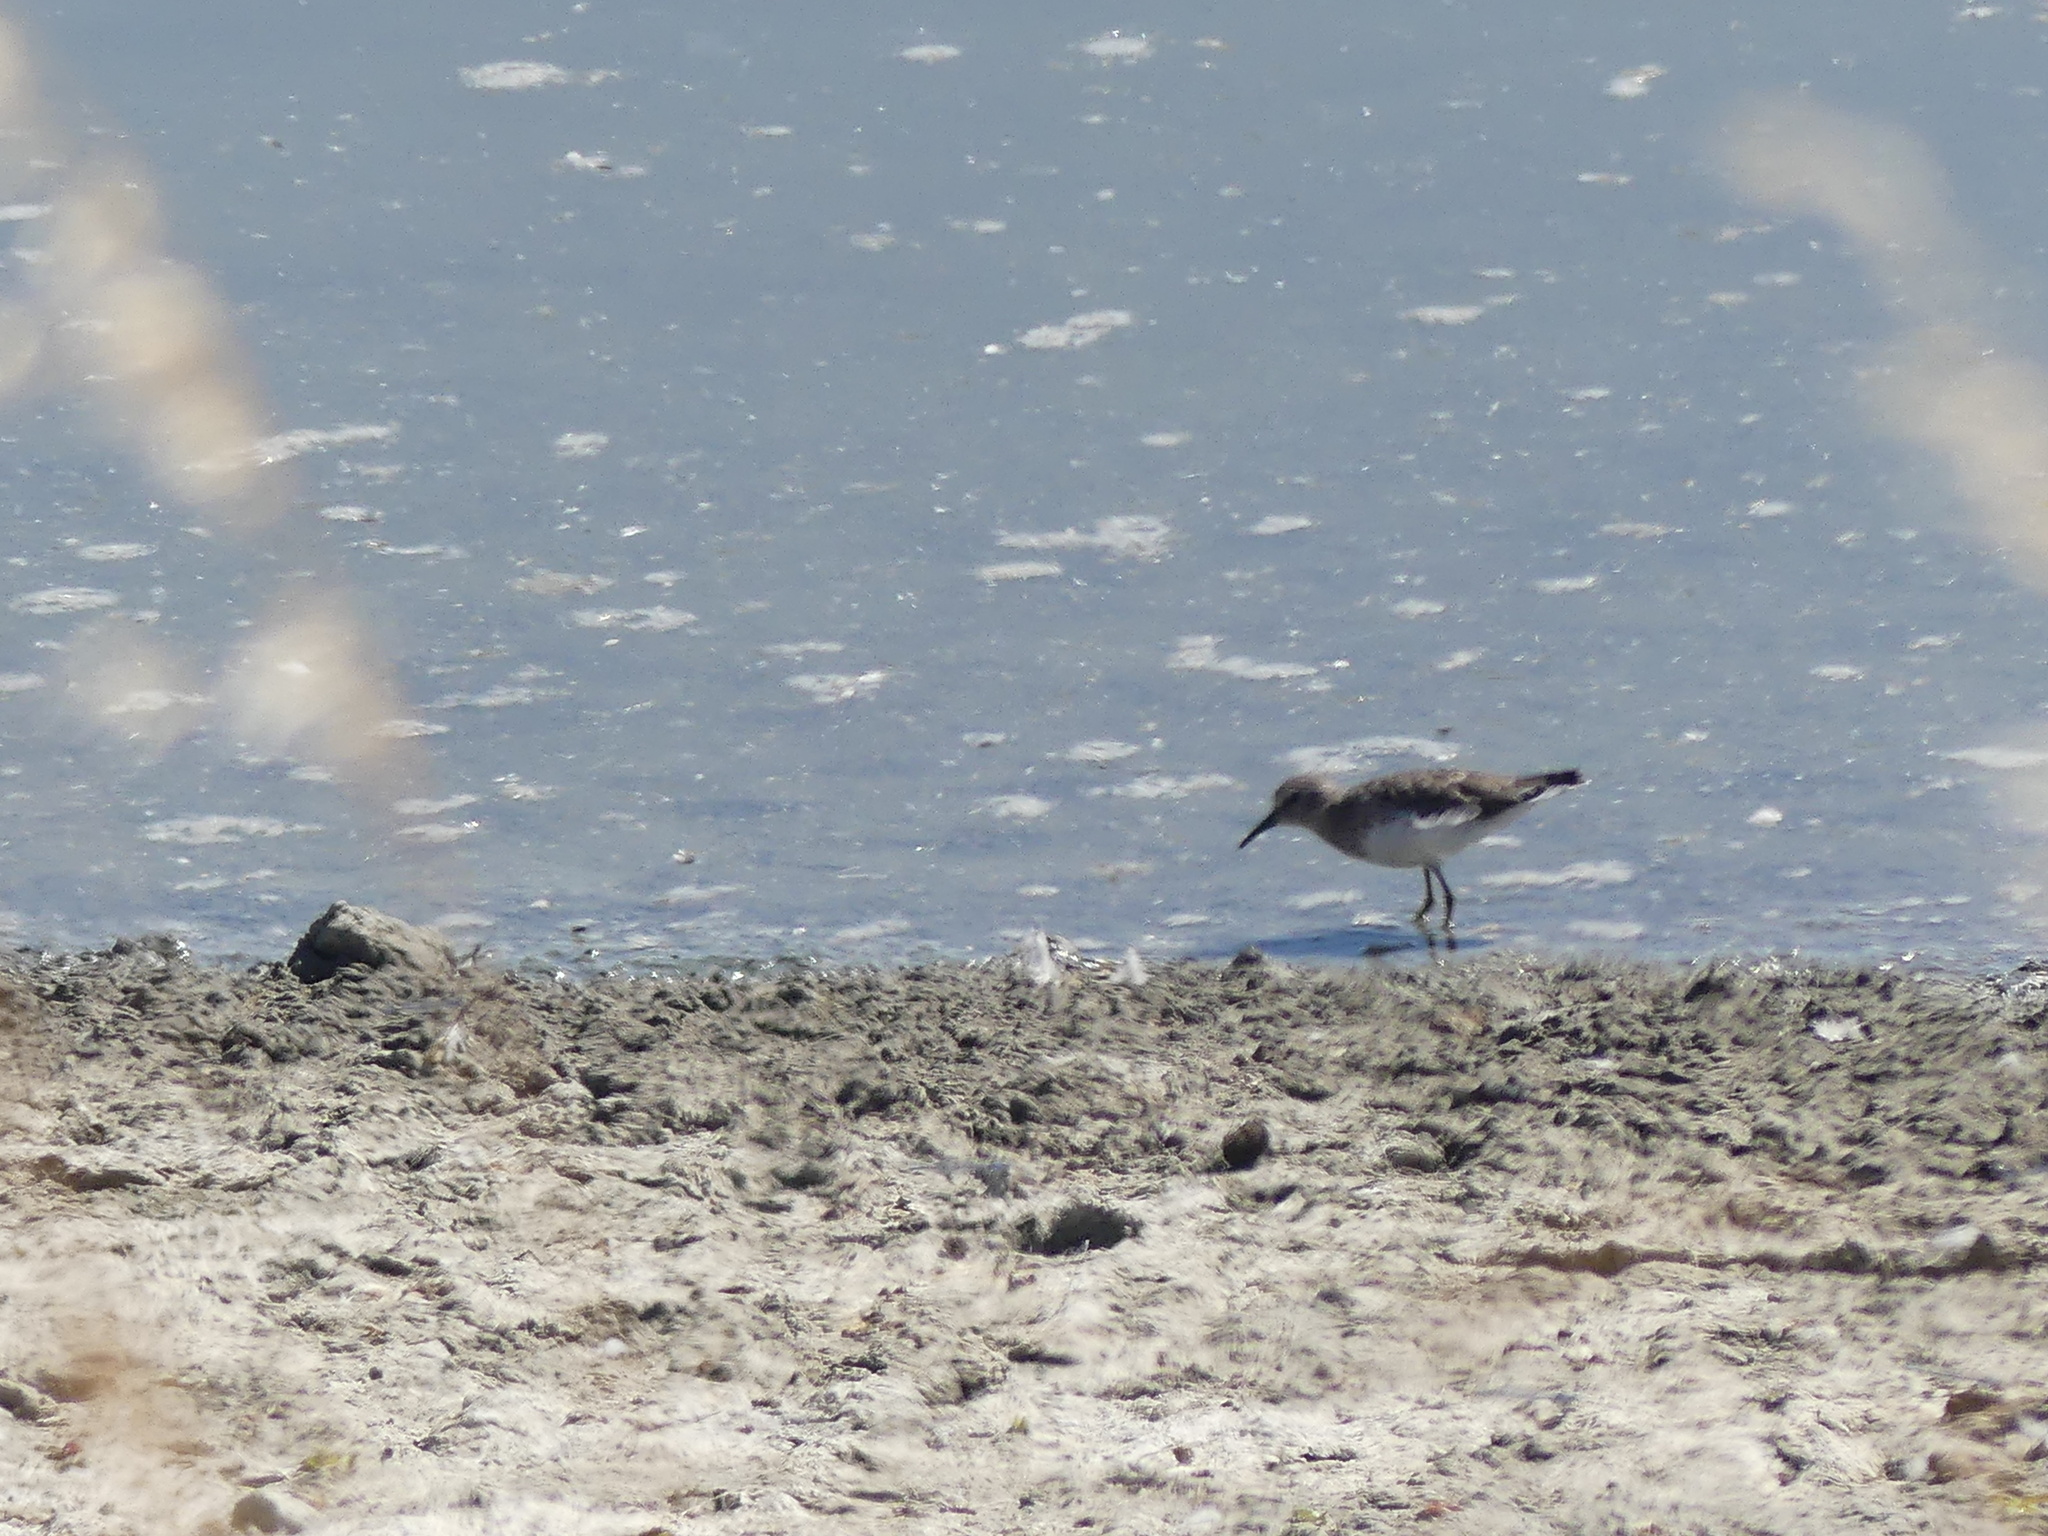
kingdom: Animalia
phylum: Chordata
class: Aves
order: Charadriiformes
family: Scolopacidae
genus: Calidris
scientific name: Calidris minutilla
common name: Least sandpiper
